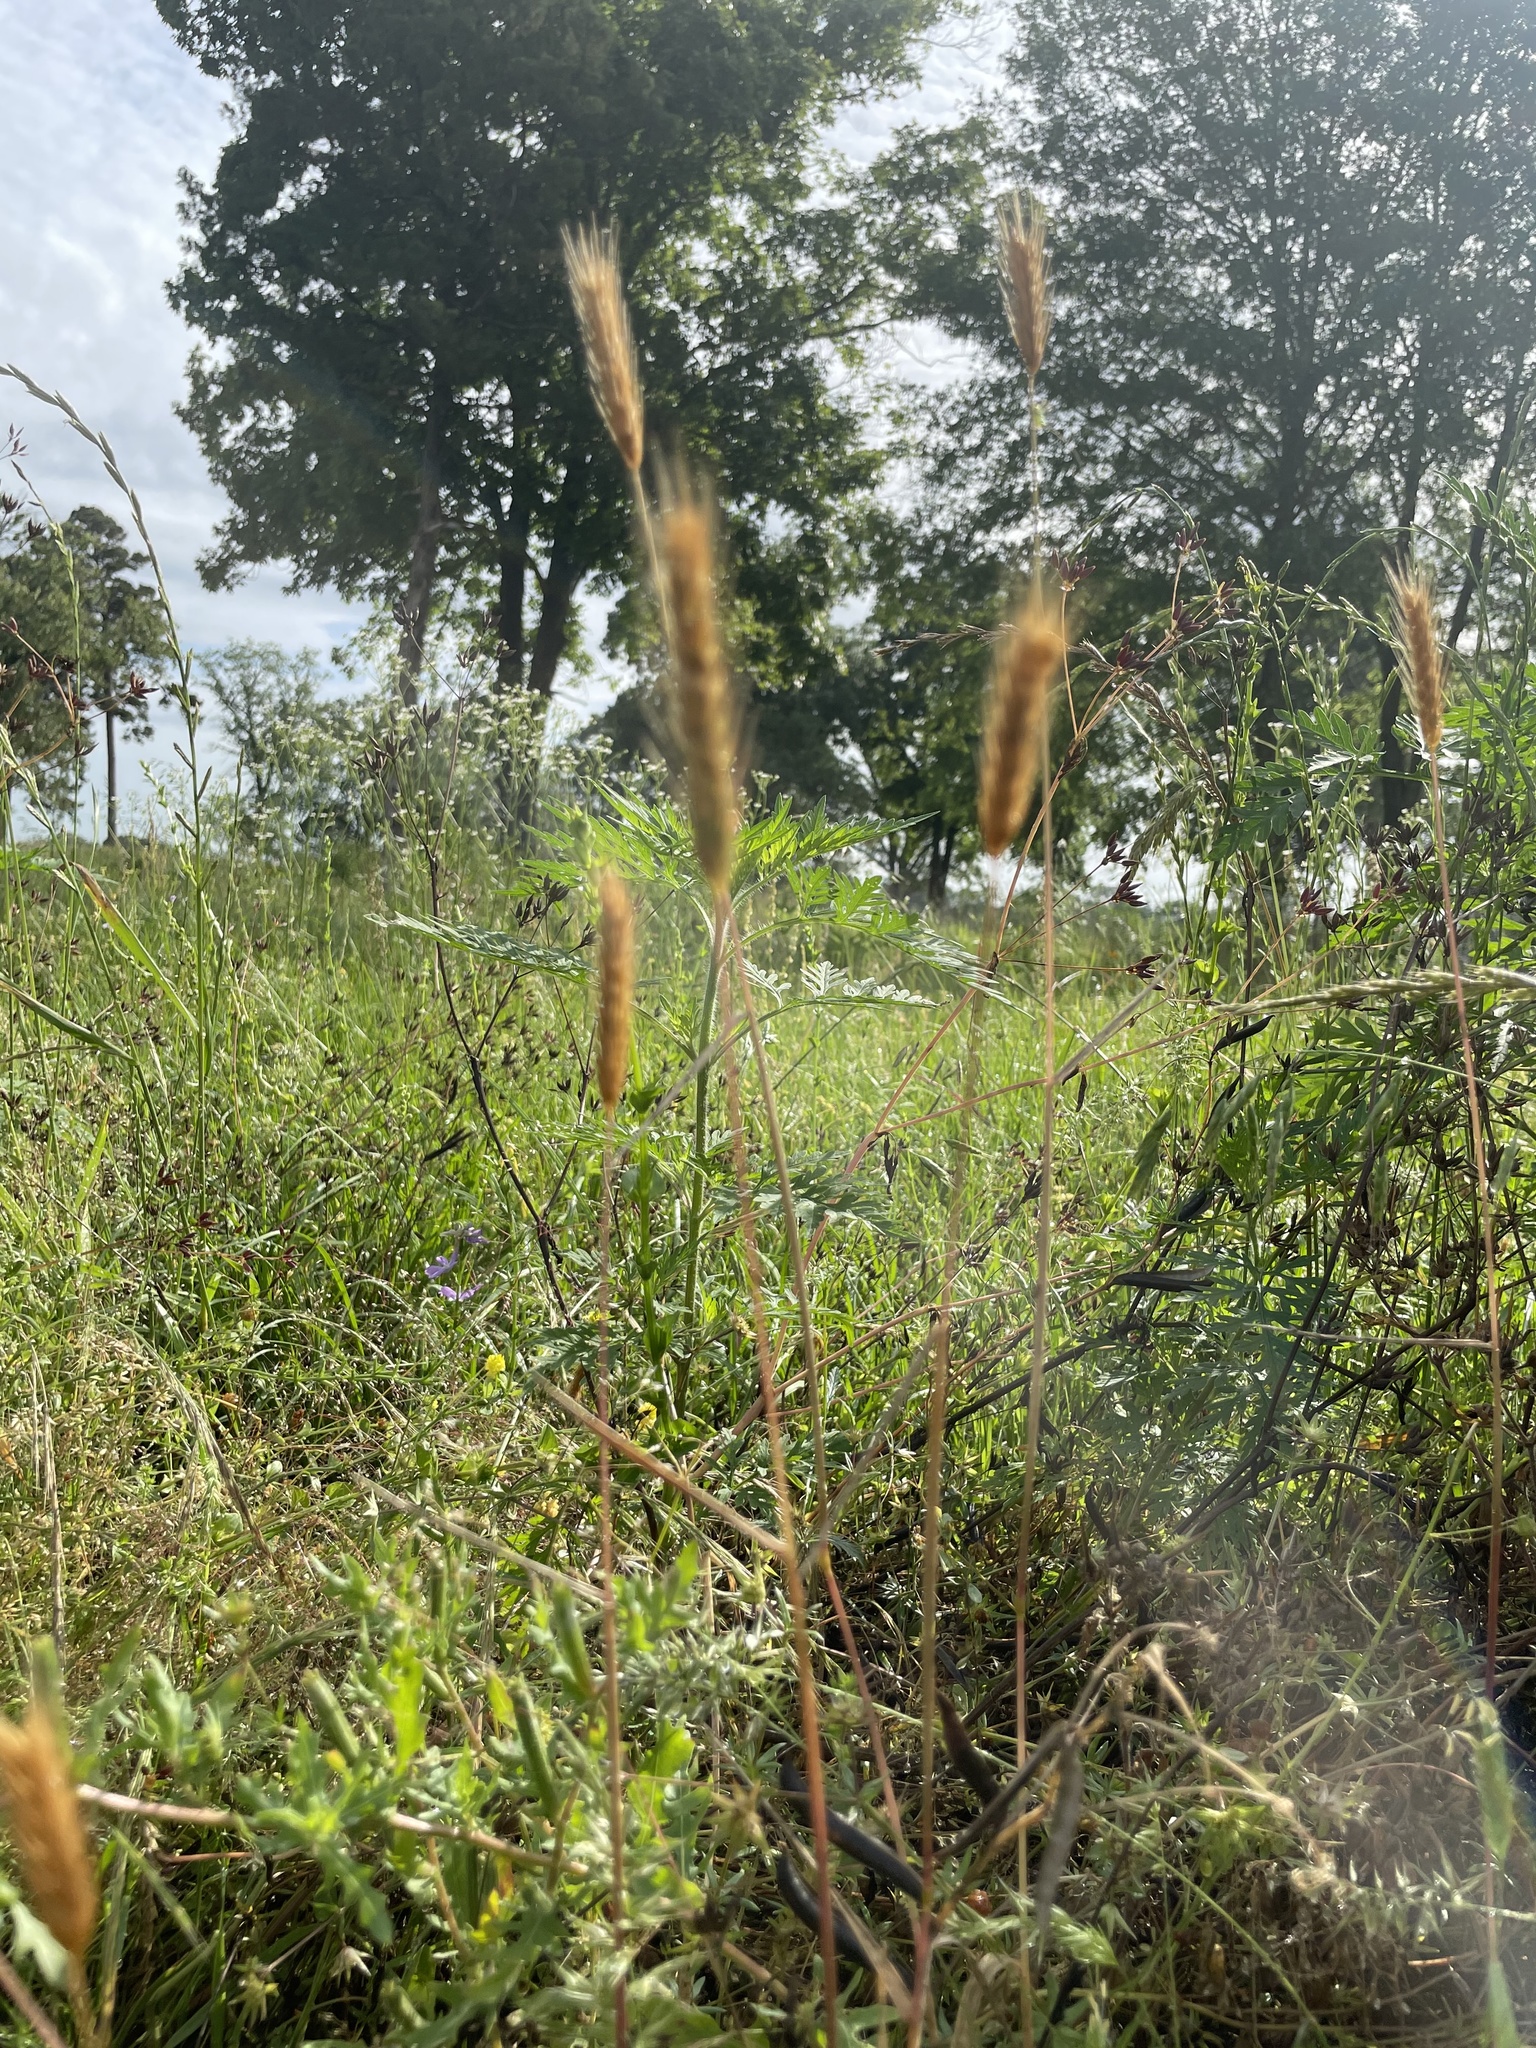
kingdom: Plantae
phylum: Tracheophyta
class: Liliopsida
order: Poales
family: Poaceae
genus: Hordeum
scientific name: Hordeum pusillum
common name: Little barley
